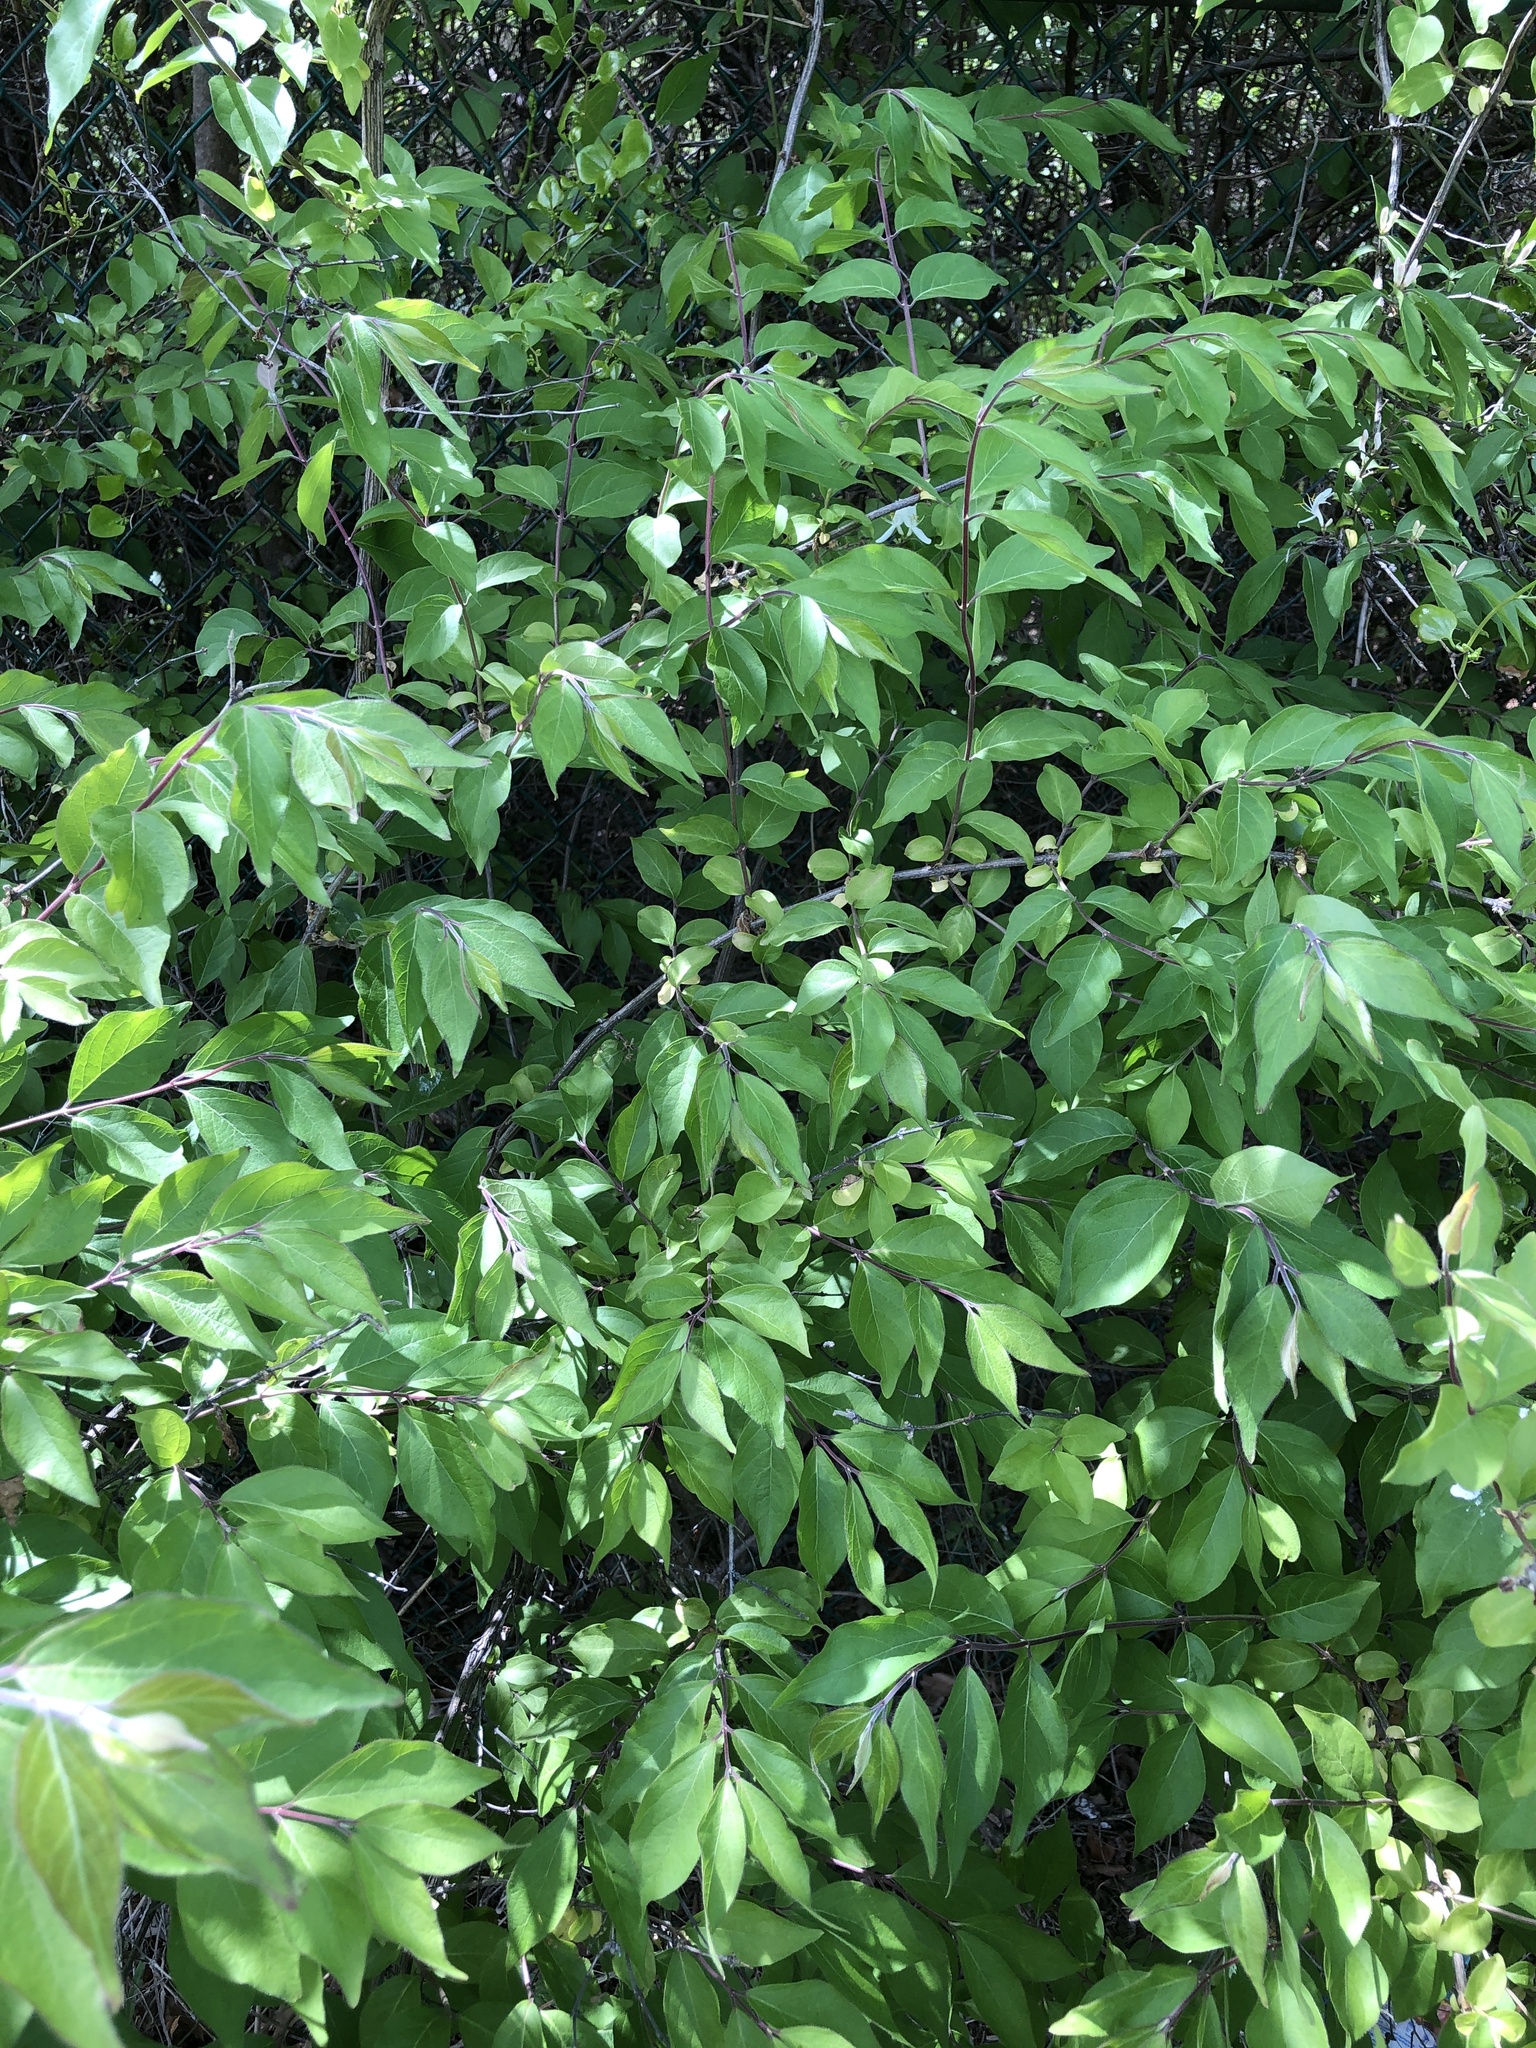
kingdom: Plantae
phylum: Tracheophyta
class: Magnoliopsida
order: Dipsacales
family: Caprifoliaceae
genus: Lonicera
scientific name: Lonicera maackii
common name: Amur honeysuckle
